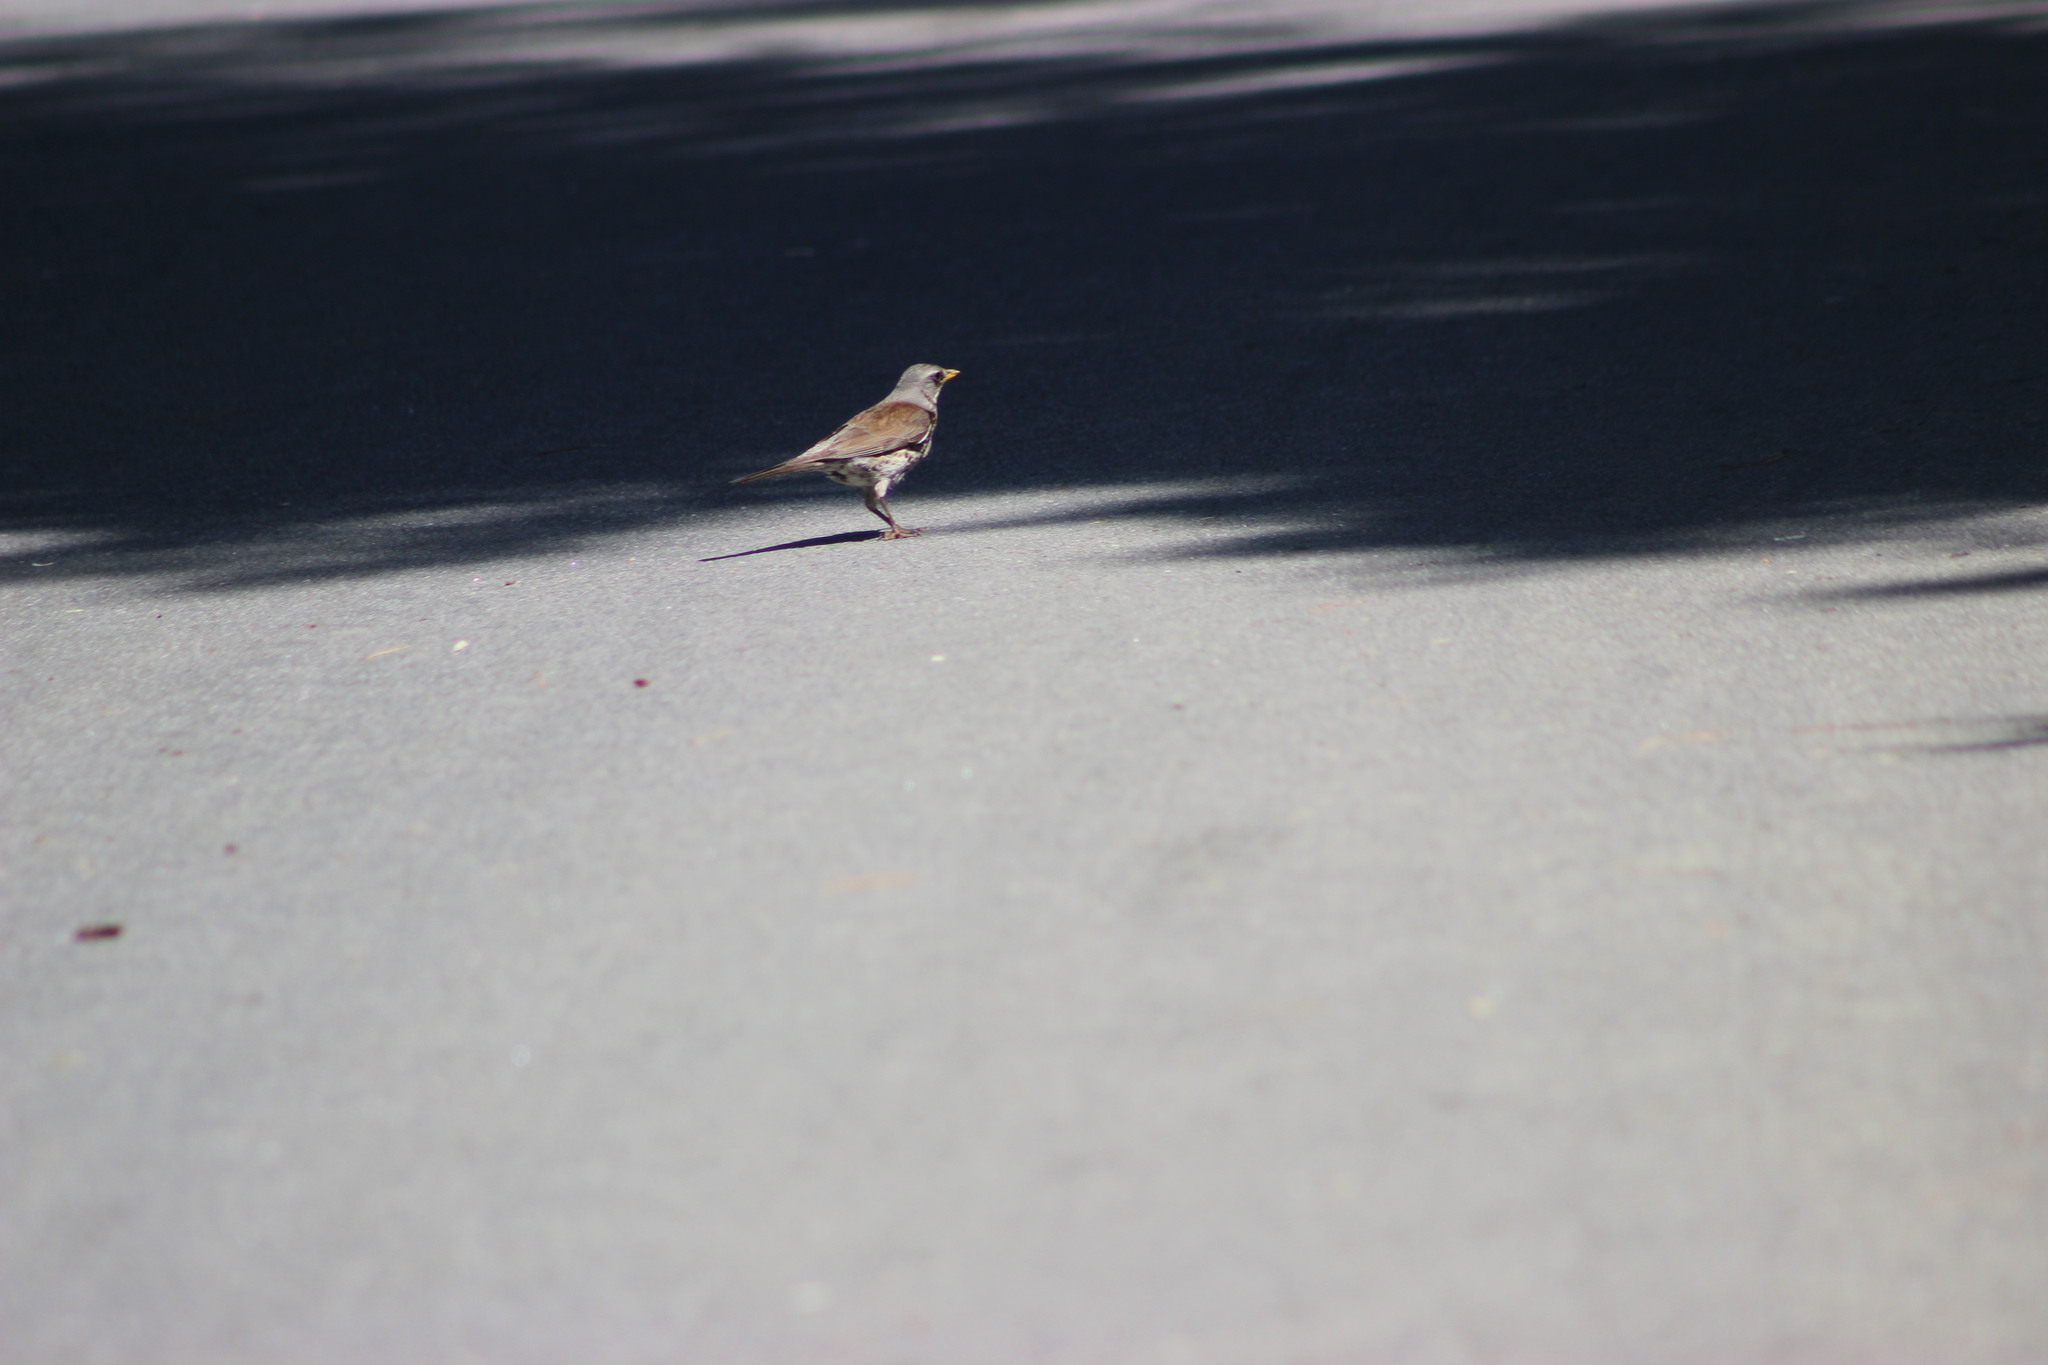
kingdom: Animalia
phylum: Chordata
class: Aves
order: Passeriformes
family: Turdidae
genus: Turdus
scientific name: Turdus pilaris
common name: Fieldfare
